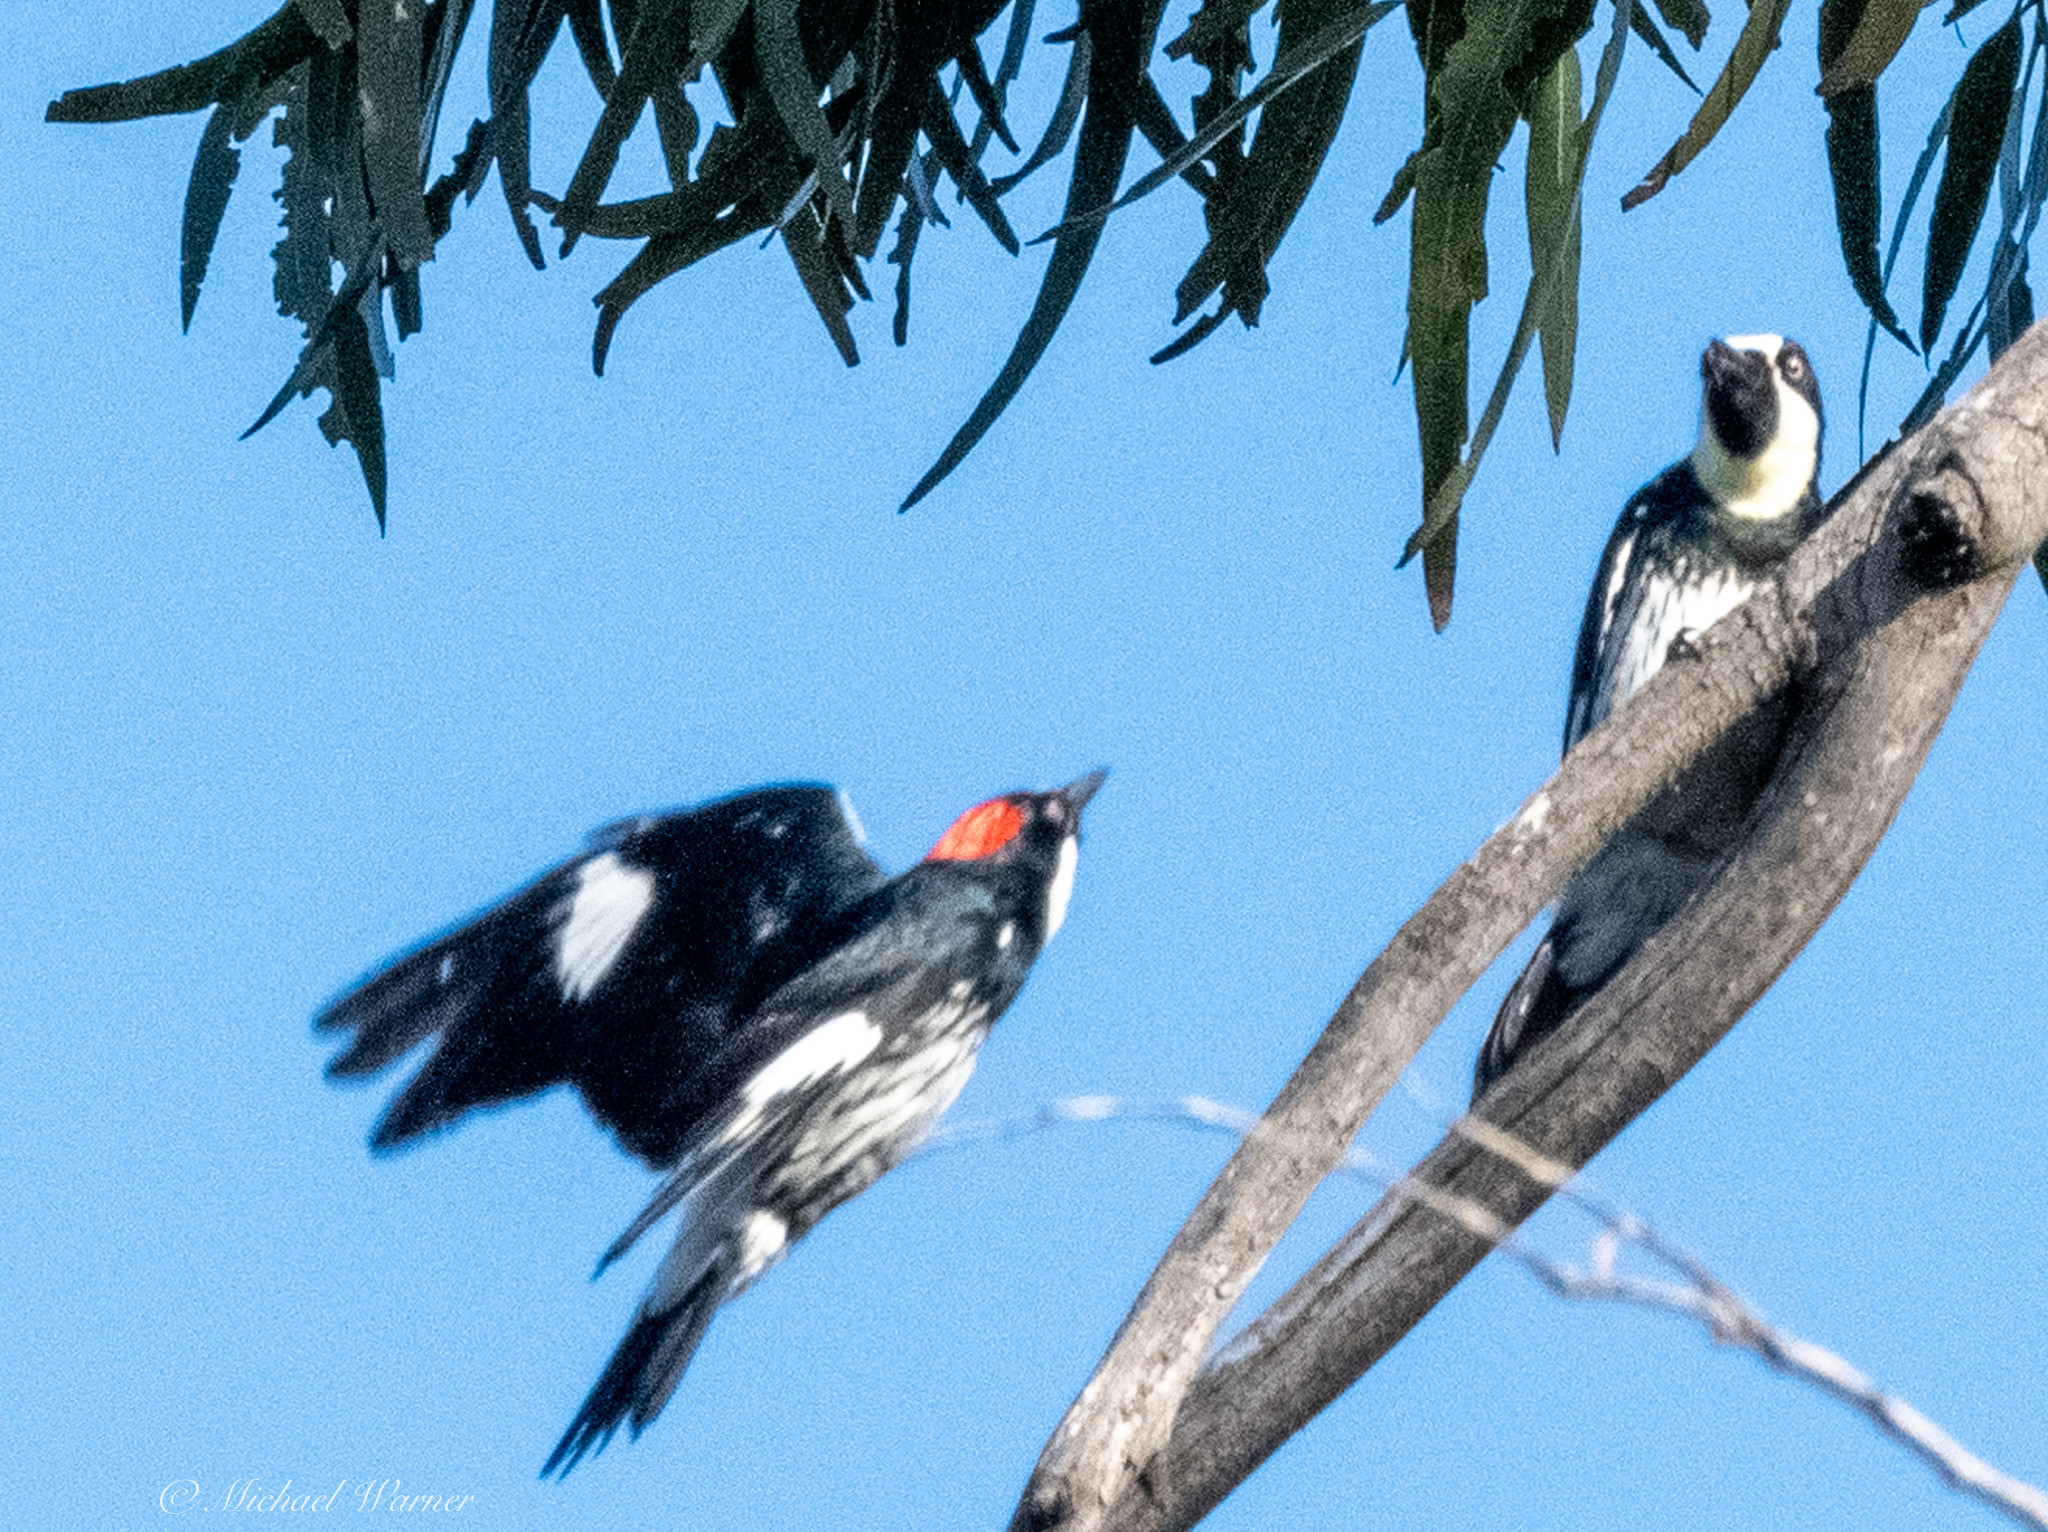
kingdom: Animalia
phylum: Chordata
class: Aves
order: Piciformes
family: Picidae
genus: Melanerpes
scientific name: Melanerpes formicivorus
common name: Acorn woodpecker
